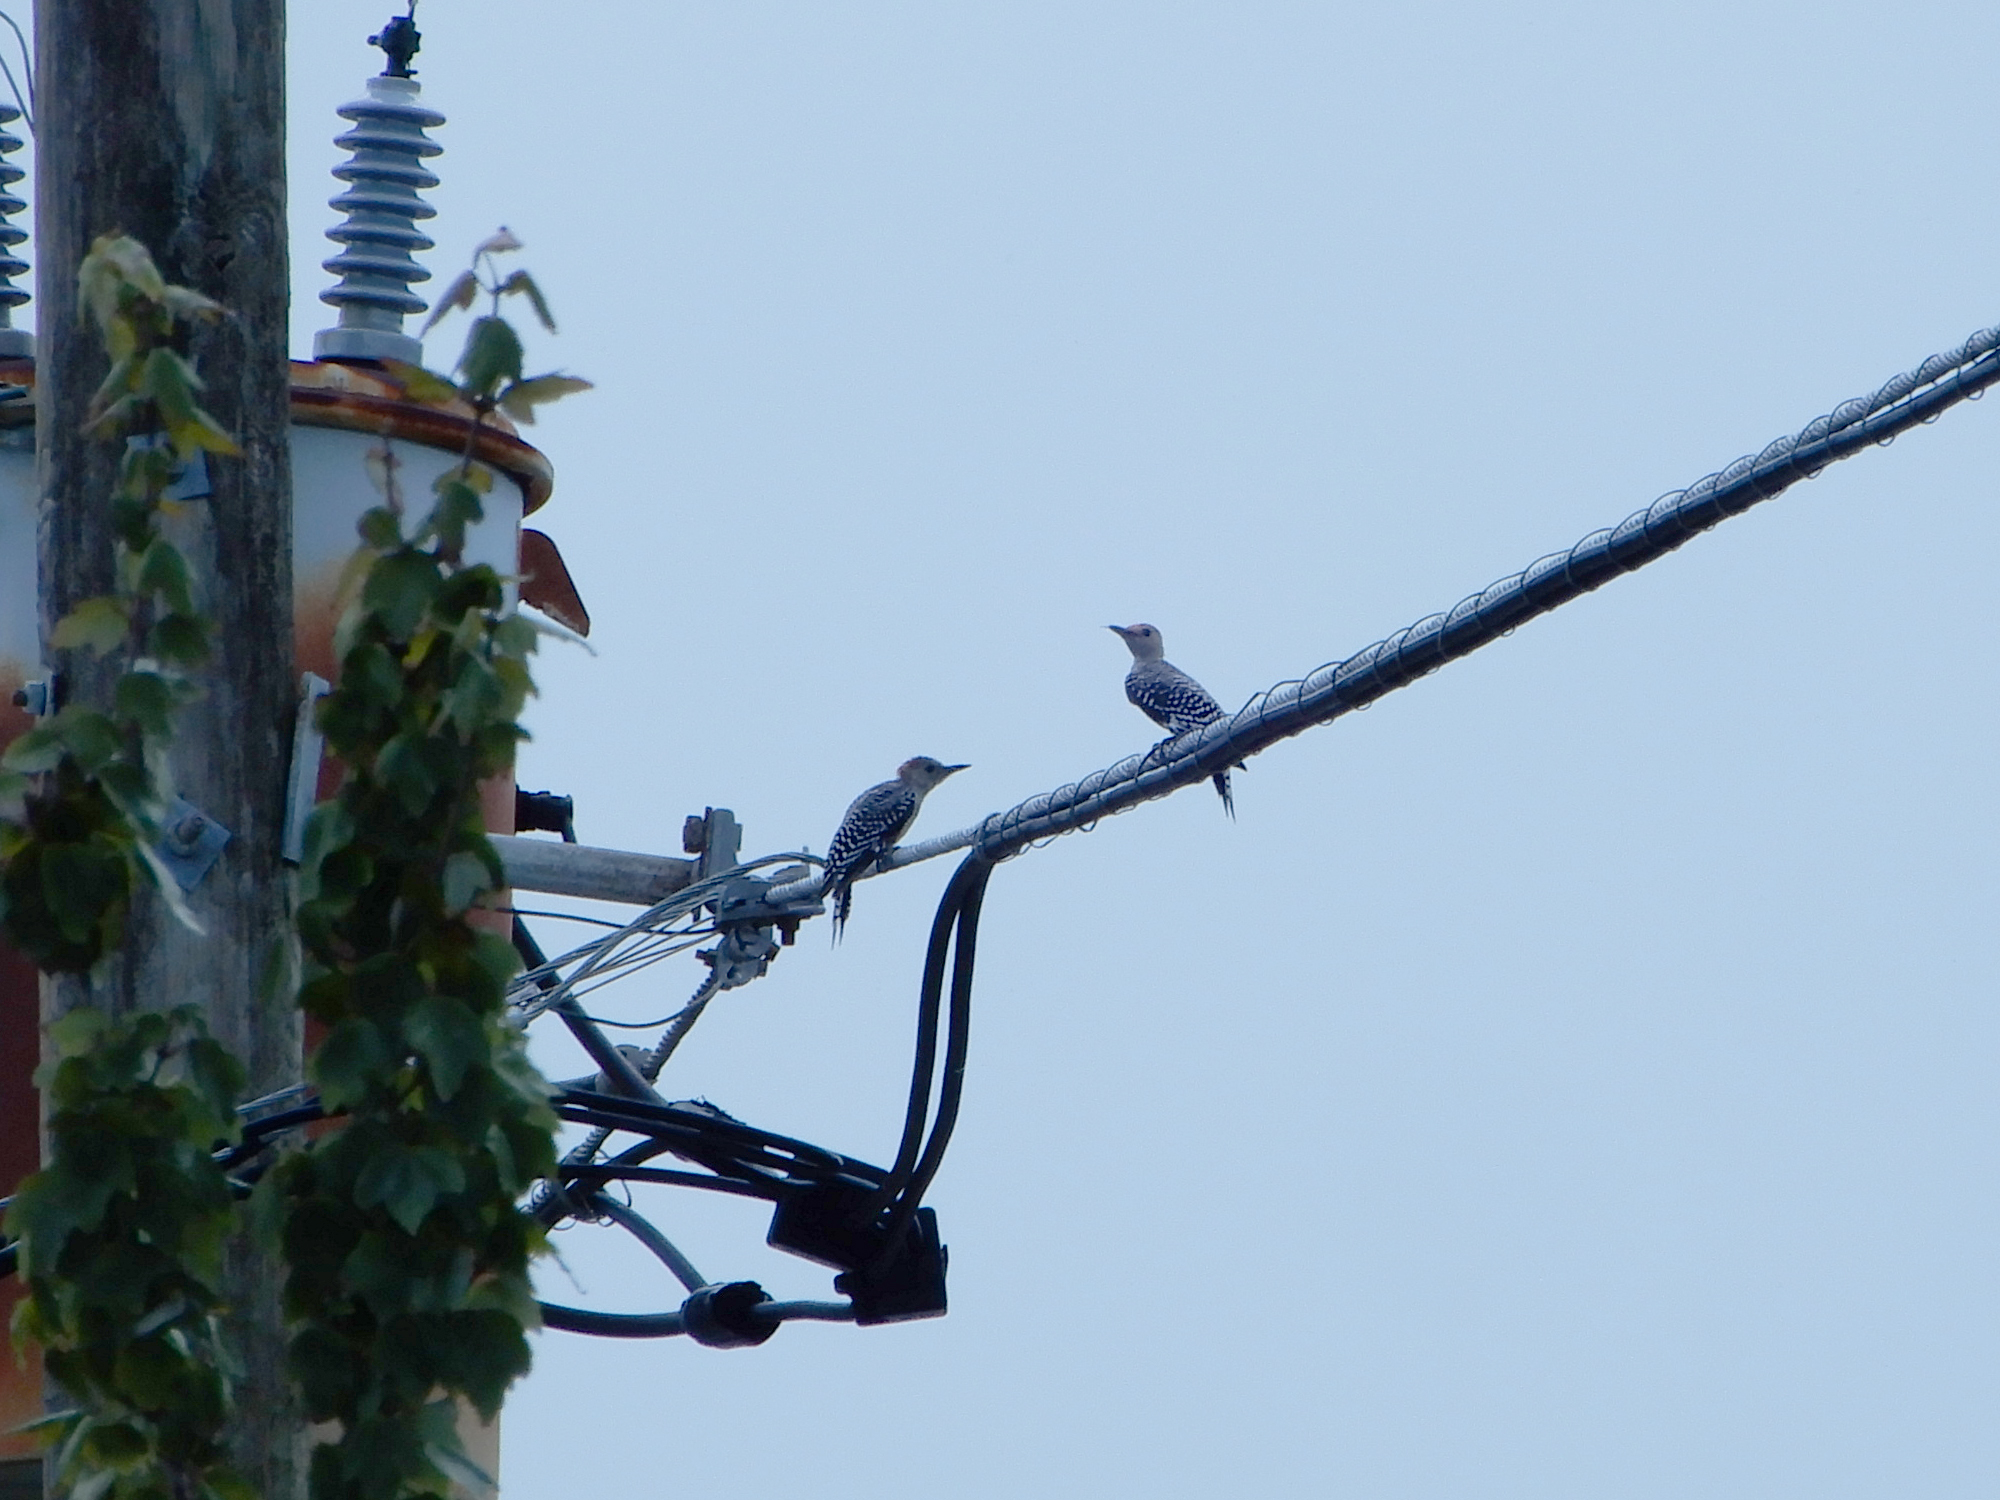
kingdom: Animalia
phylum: Chordata
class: Aves
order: Piciformes
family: Picidae
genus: Melanerpes
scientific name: Melanerpes carolinus
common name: Red-bellied woodpecker
